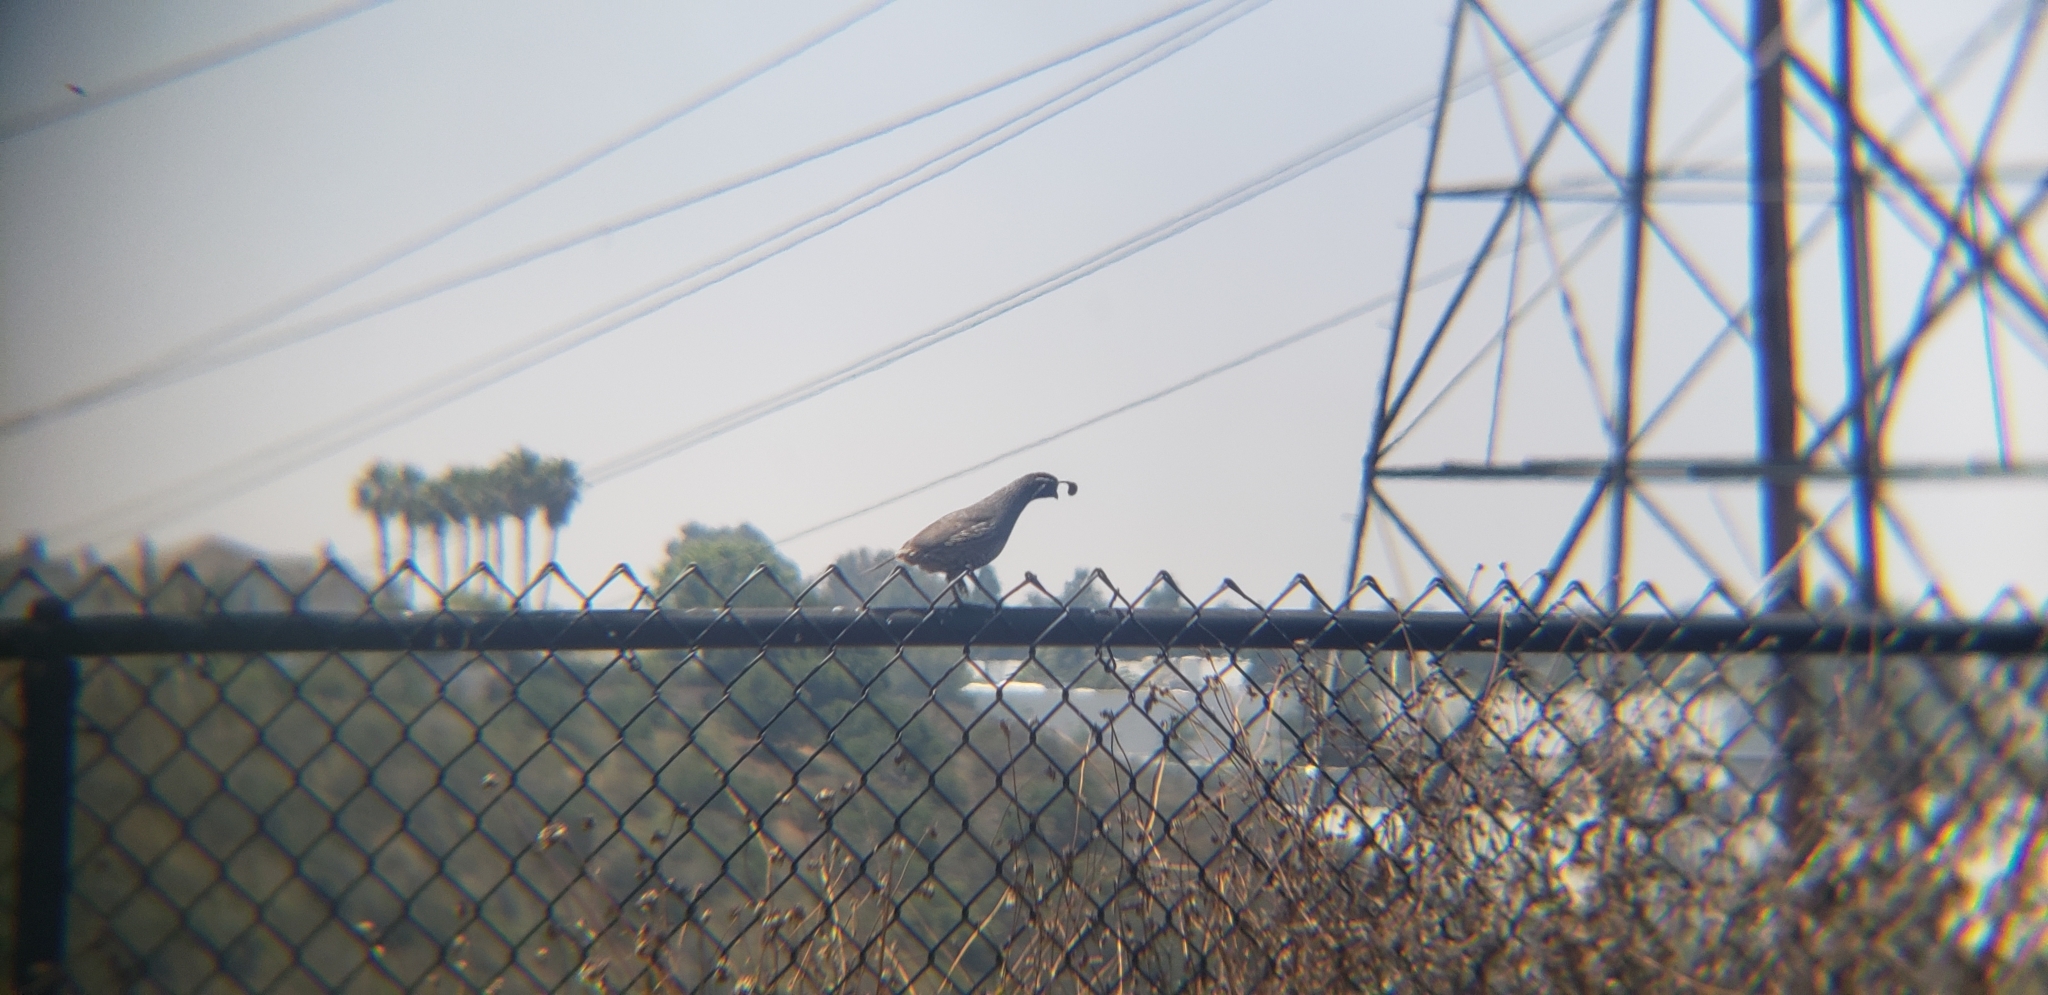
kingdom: Animalia
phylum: Chordata
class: Aves
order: Galliformes
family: Odontophoridae
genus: Callipepla
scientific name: Callipepla californica
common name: California quail
